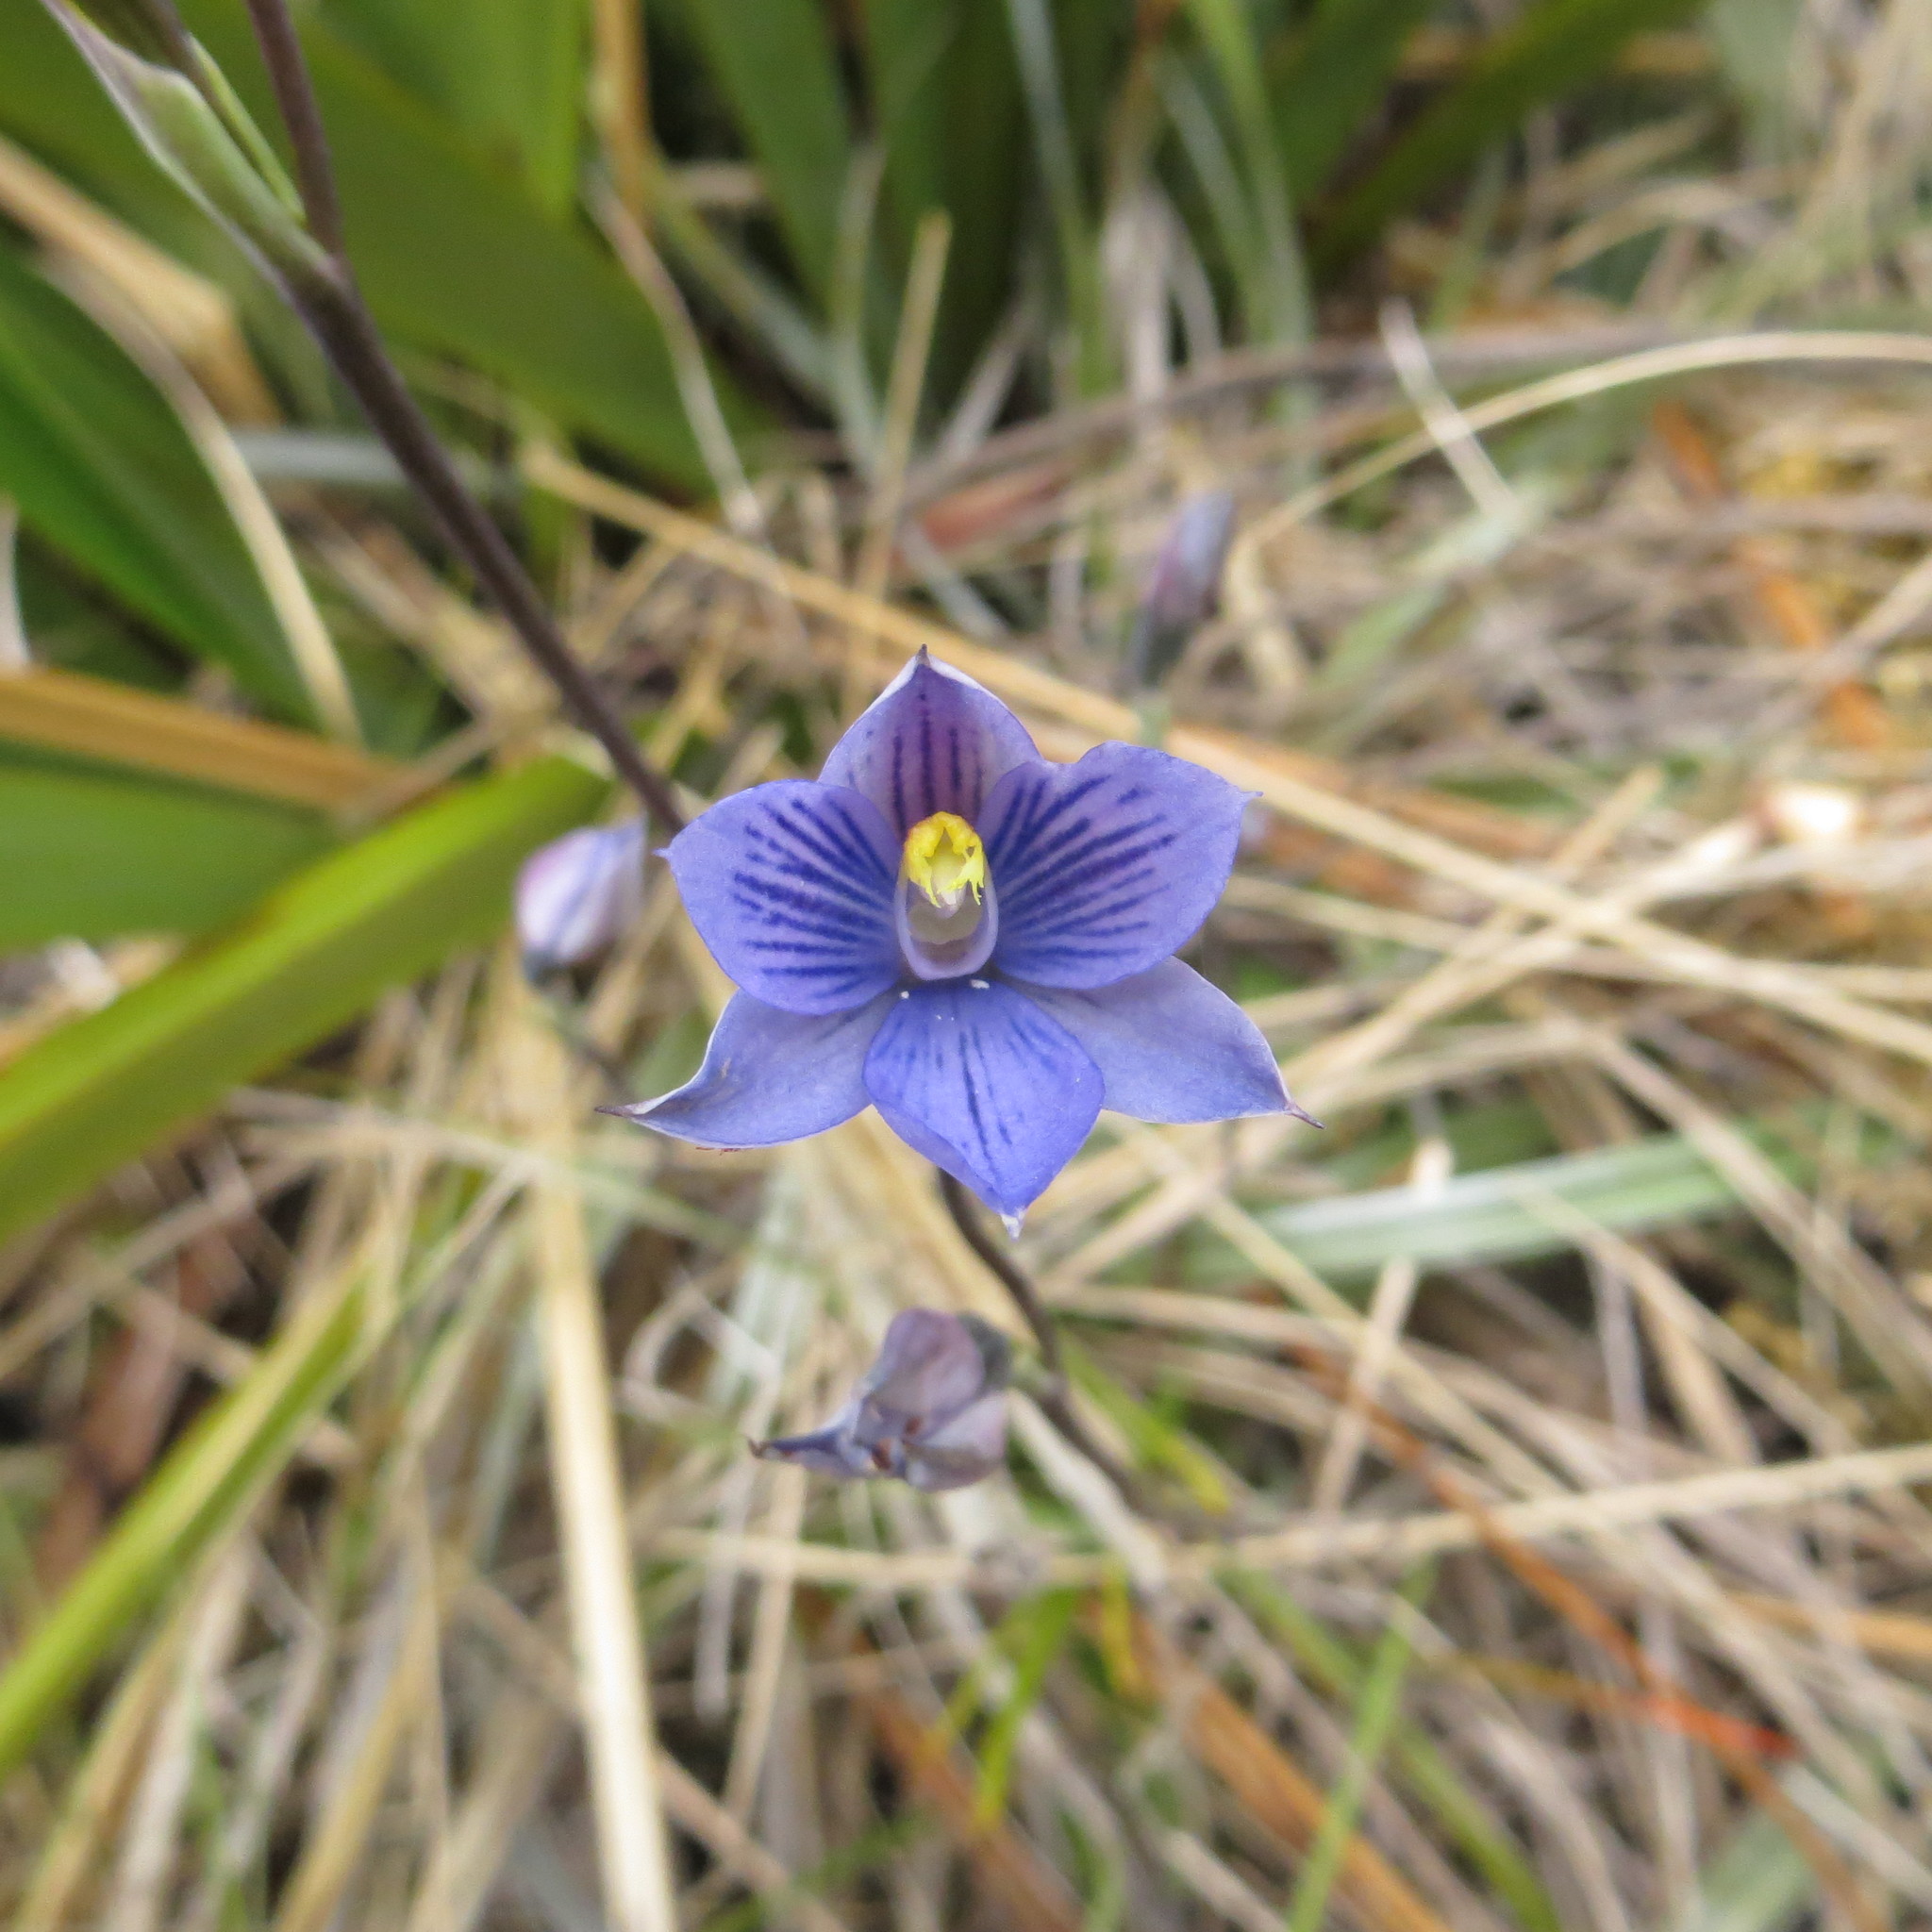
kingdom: Plantae
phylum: Tracheophyta
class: Liliopsida
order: Asparagales
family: Orchidaceae
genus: Thelymitra
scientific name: Thelymitra pulchella
